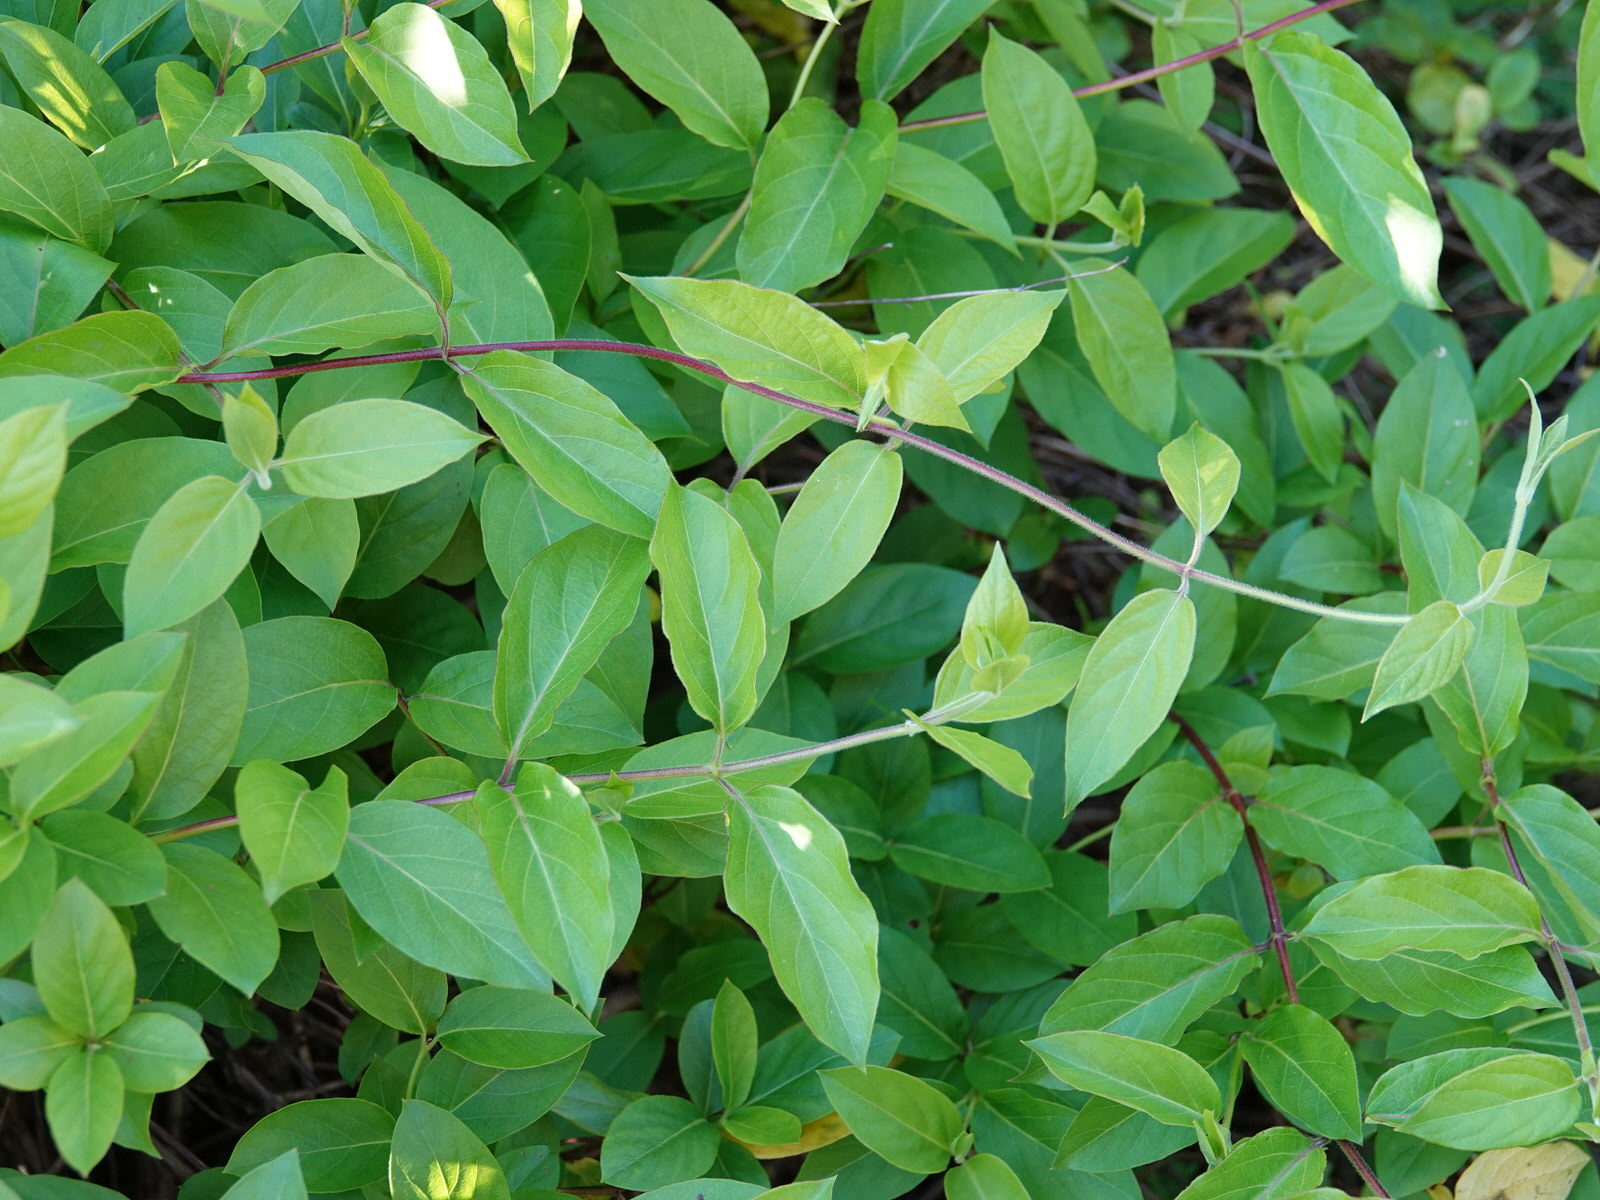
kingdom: Plantae
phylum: Tracheophyta
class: Magnoliopsida
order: Dipsacales
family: Caprifoliaceae
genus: Lonicera
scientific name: Lonicera japonica
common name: Japanese honeysuckle
